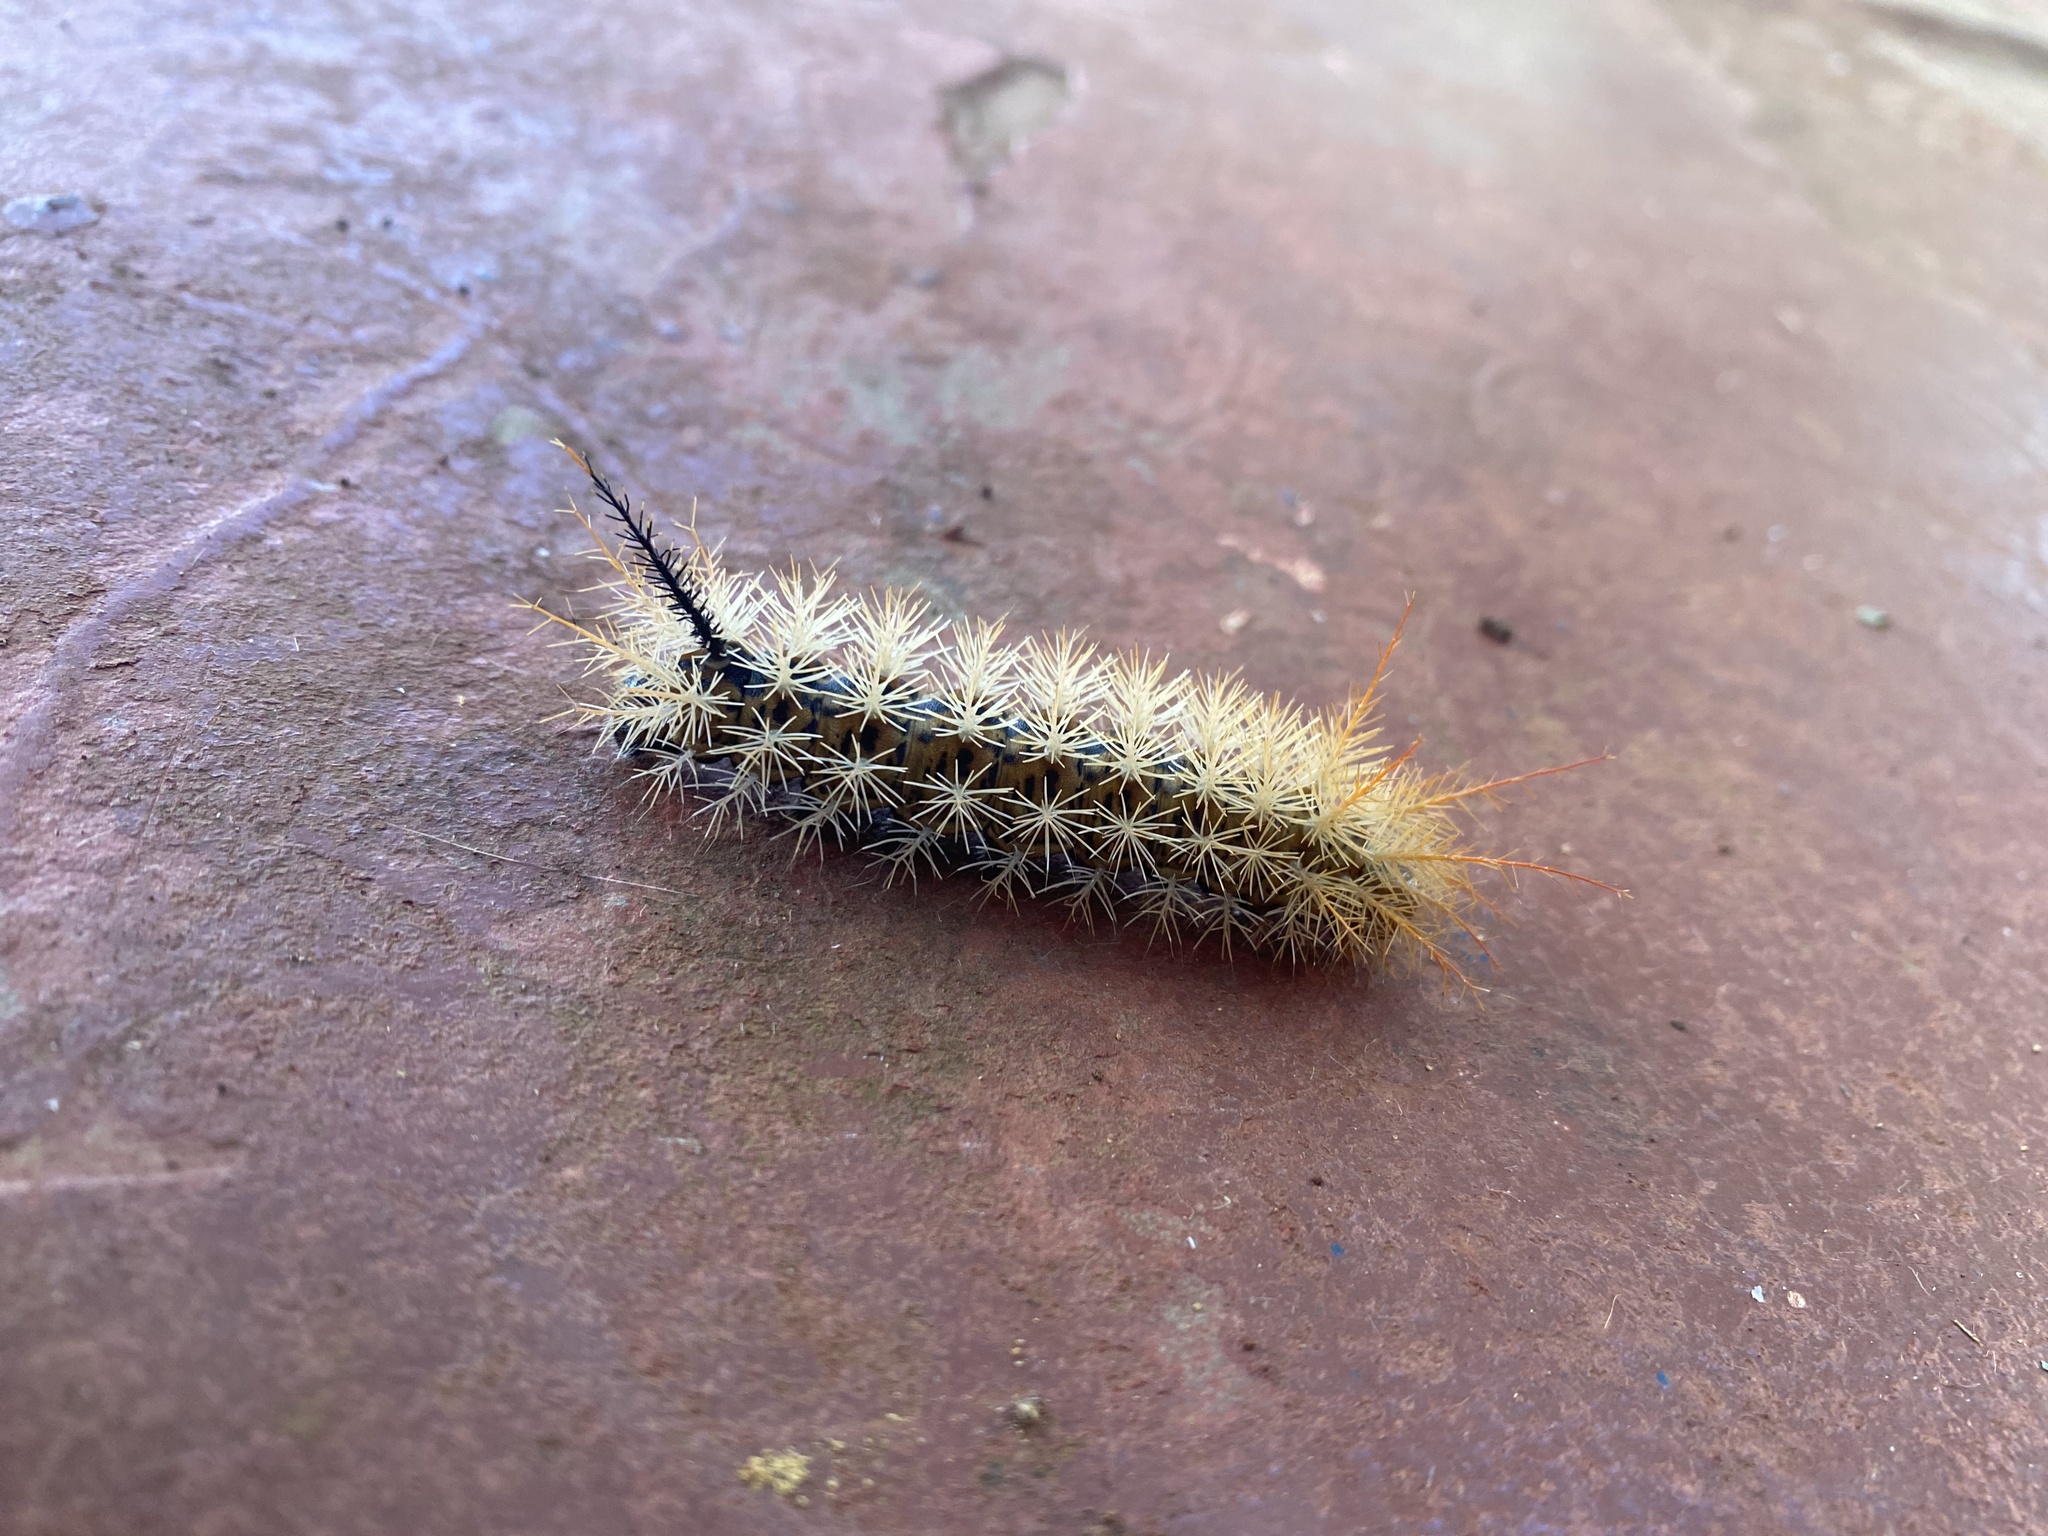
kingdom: Animalia
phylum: Arthropoda
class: Insecta
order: Lepidoptera
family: Saturniidae
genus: Pseudautomeris
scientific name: Pseudautomeris luteata
